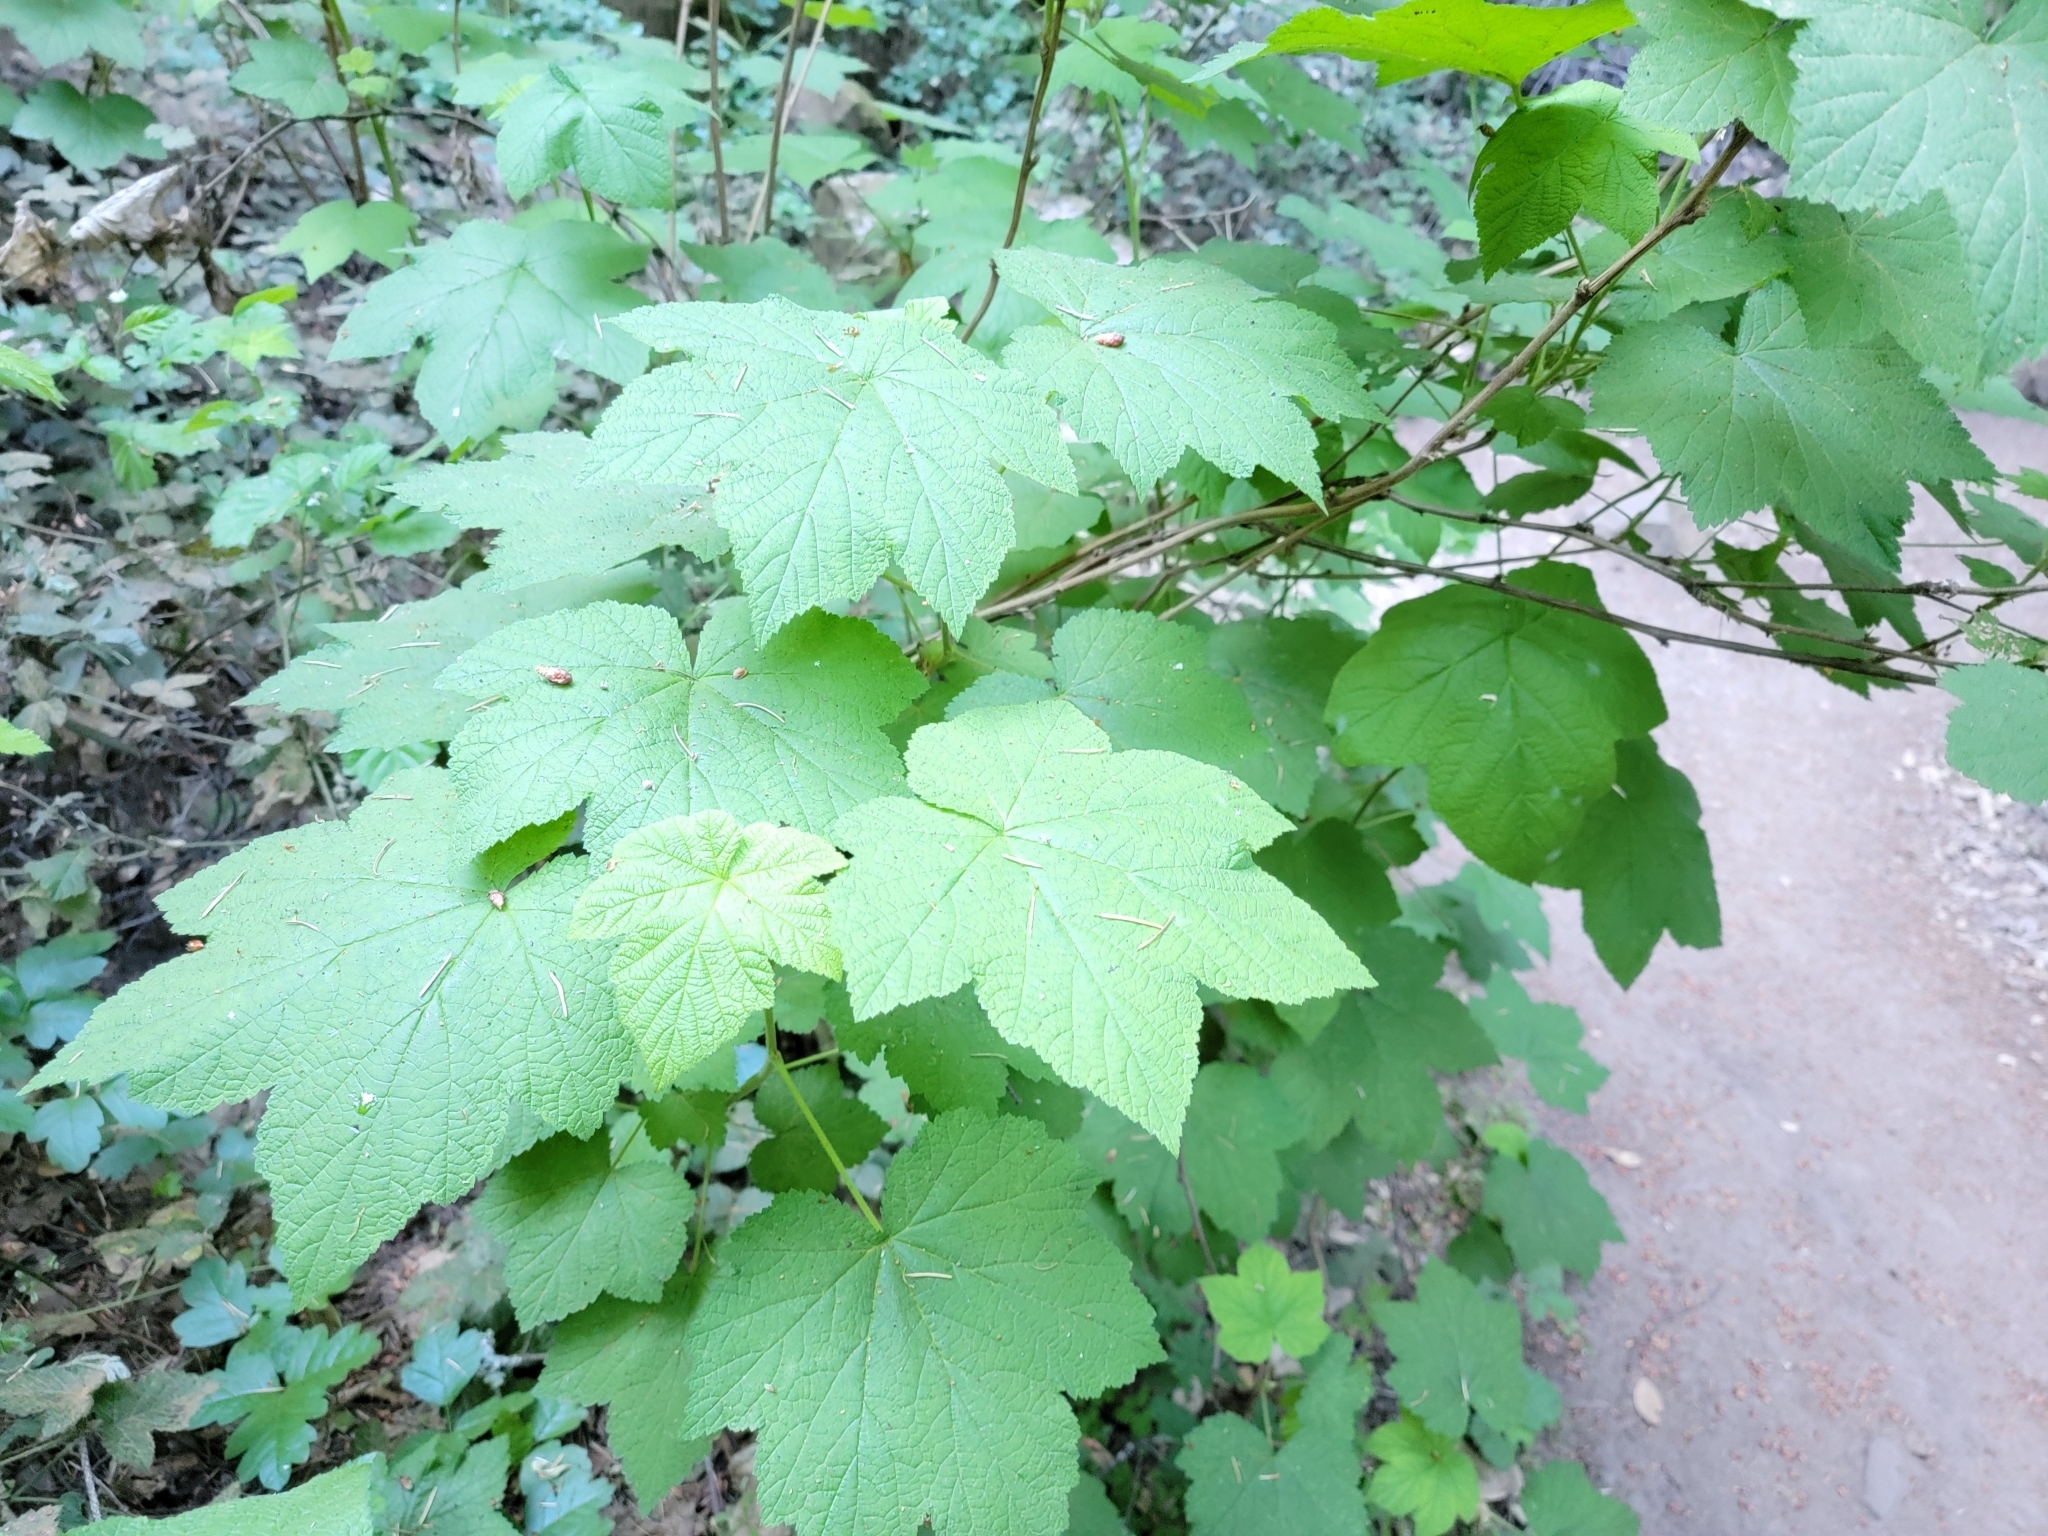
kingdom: Plantae
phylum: Tracheophyta
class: Magnoliopsida
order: Rosales
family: Rosaceae
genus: Rubus
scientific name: Rubus parviflorus
